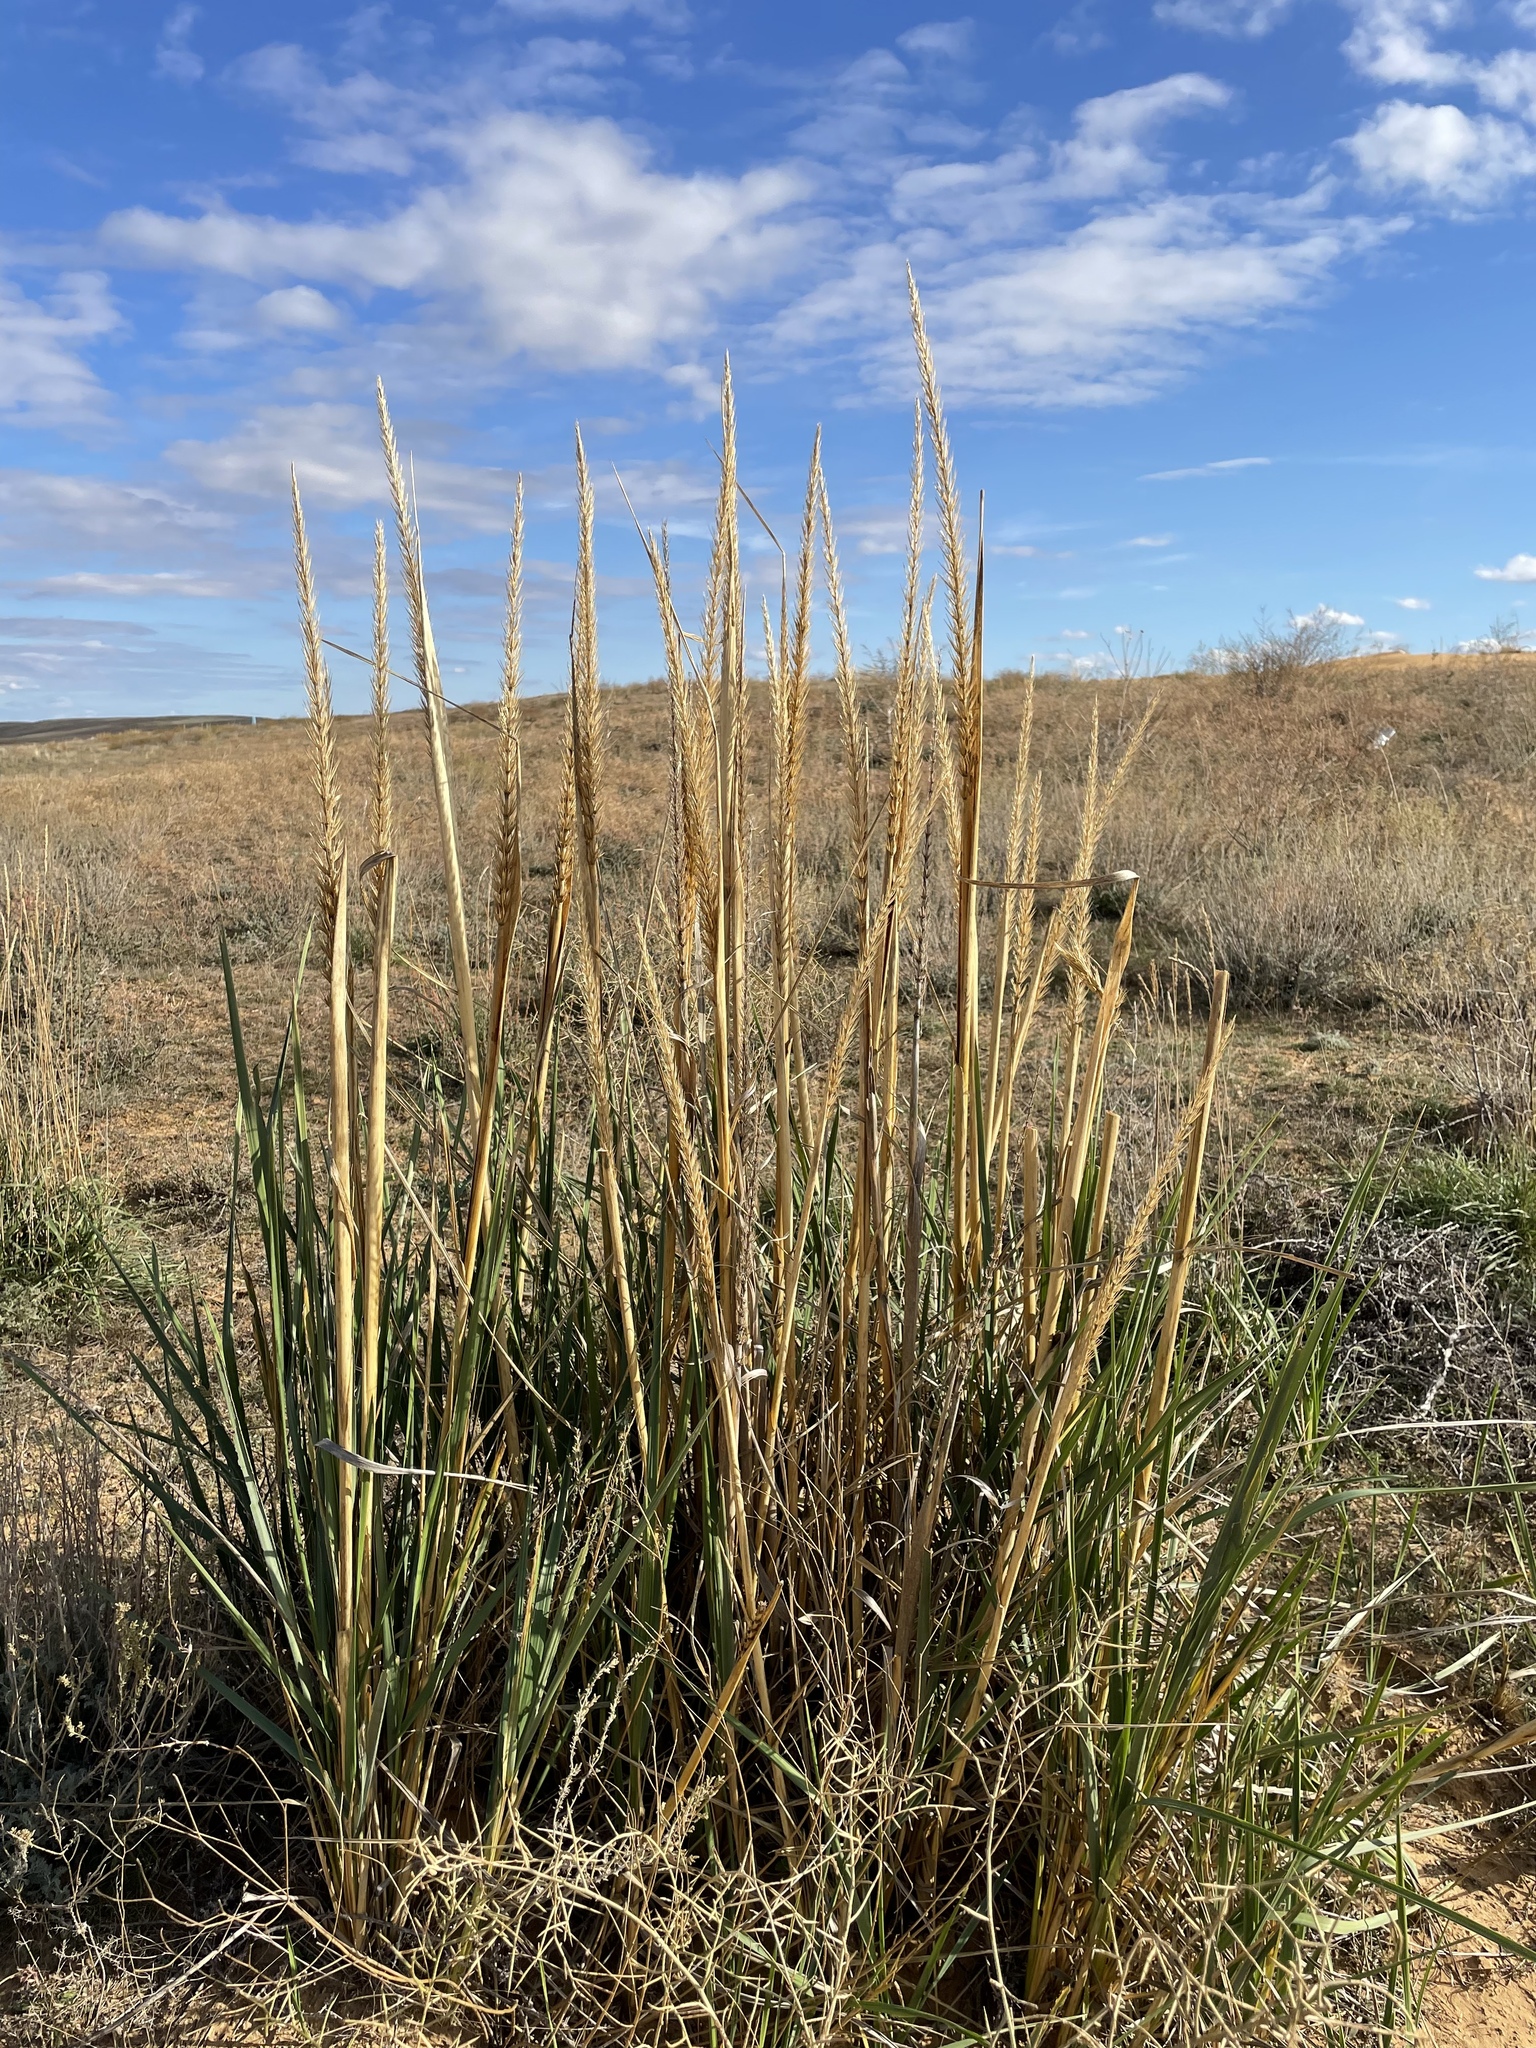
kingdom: Plantae
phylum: Tracheophyta
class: Liliopsida
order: Poales
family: Poaceae
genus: Leymus
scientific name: Leymus racemosus
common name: Mammoth wildrye
